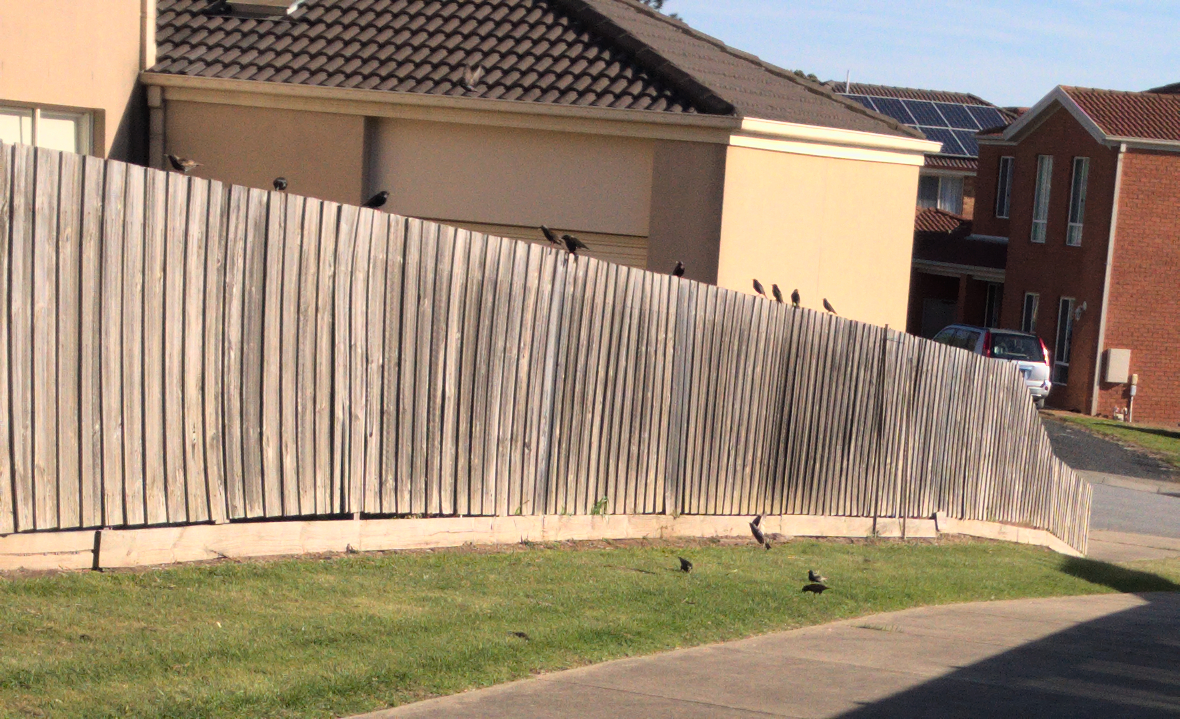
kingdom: Animalia
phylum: Chordata
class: Aves
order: Passeriformes
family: Sturnidae
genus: Sturnus
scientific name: Sturnus vulgaris
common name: Common starling
